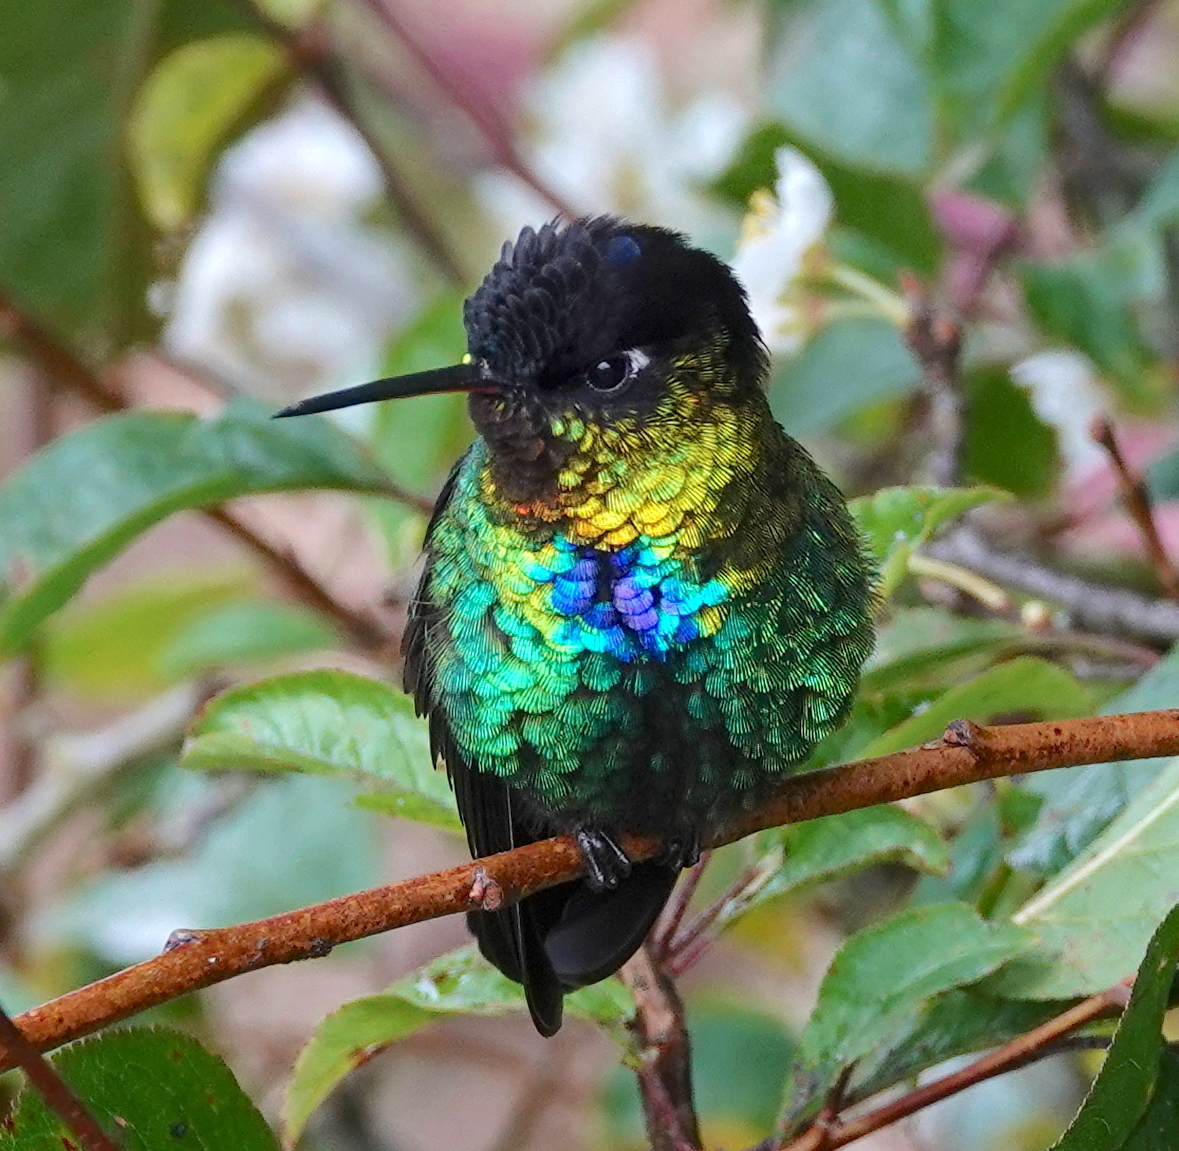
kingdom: Animalia
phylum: Chordata
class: Aves
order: Apodiformes
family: Trochilidae
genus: Panterpe
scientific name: Panterpe insignis
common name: Fiery-throated hummingbird
